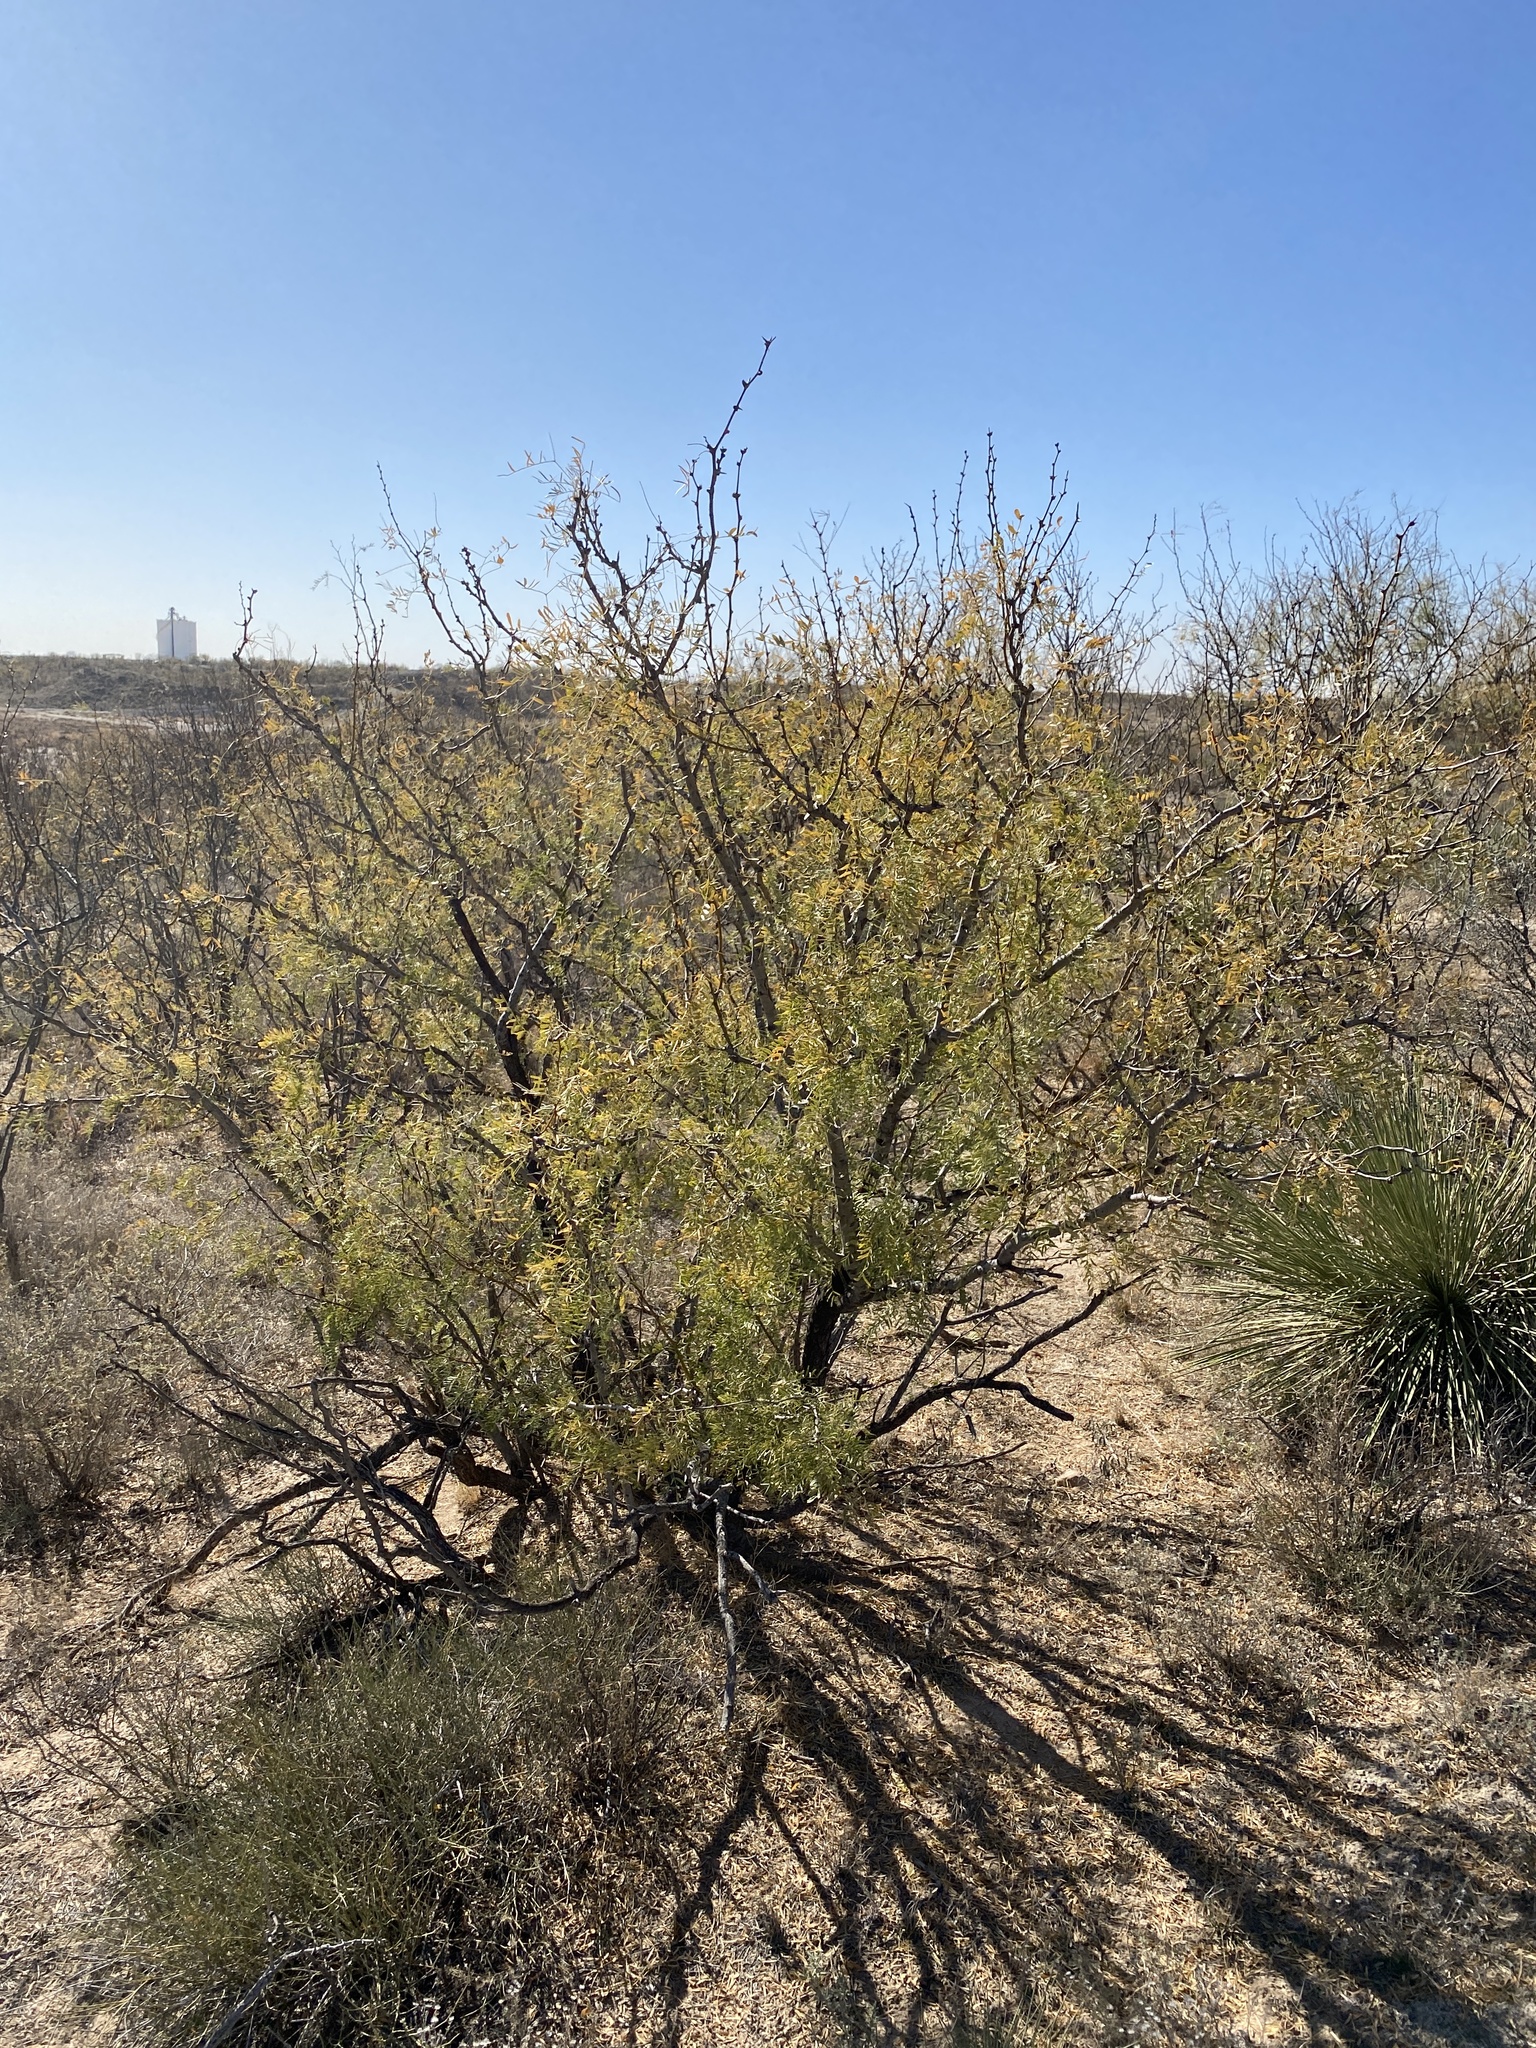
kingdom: Plantae
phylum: Tracheophyta
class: Magnoliopsida
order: Fabales
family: Fabaceae
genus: Prosopis
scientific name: Prosopis glandulosa
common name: Honey mesquite
